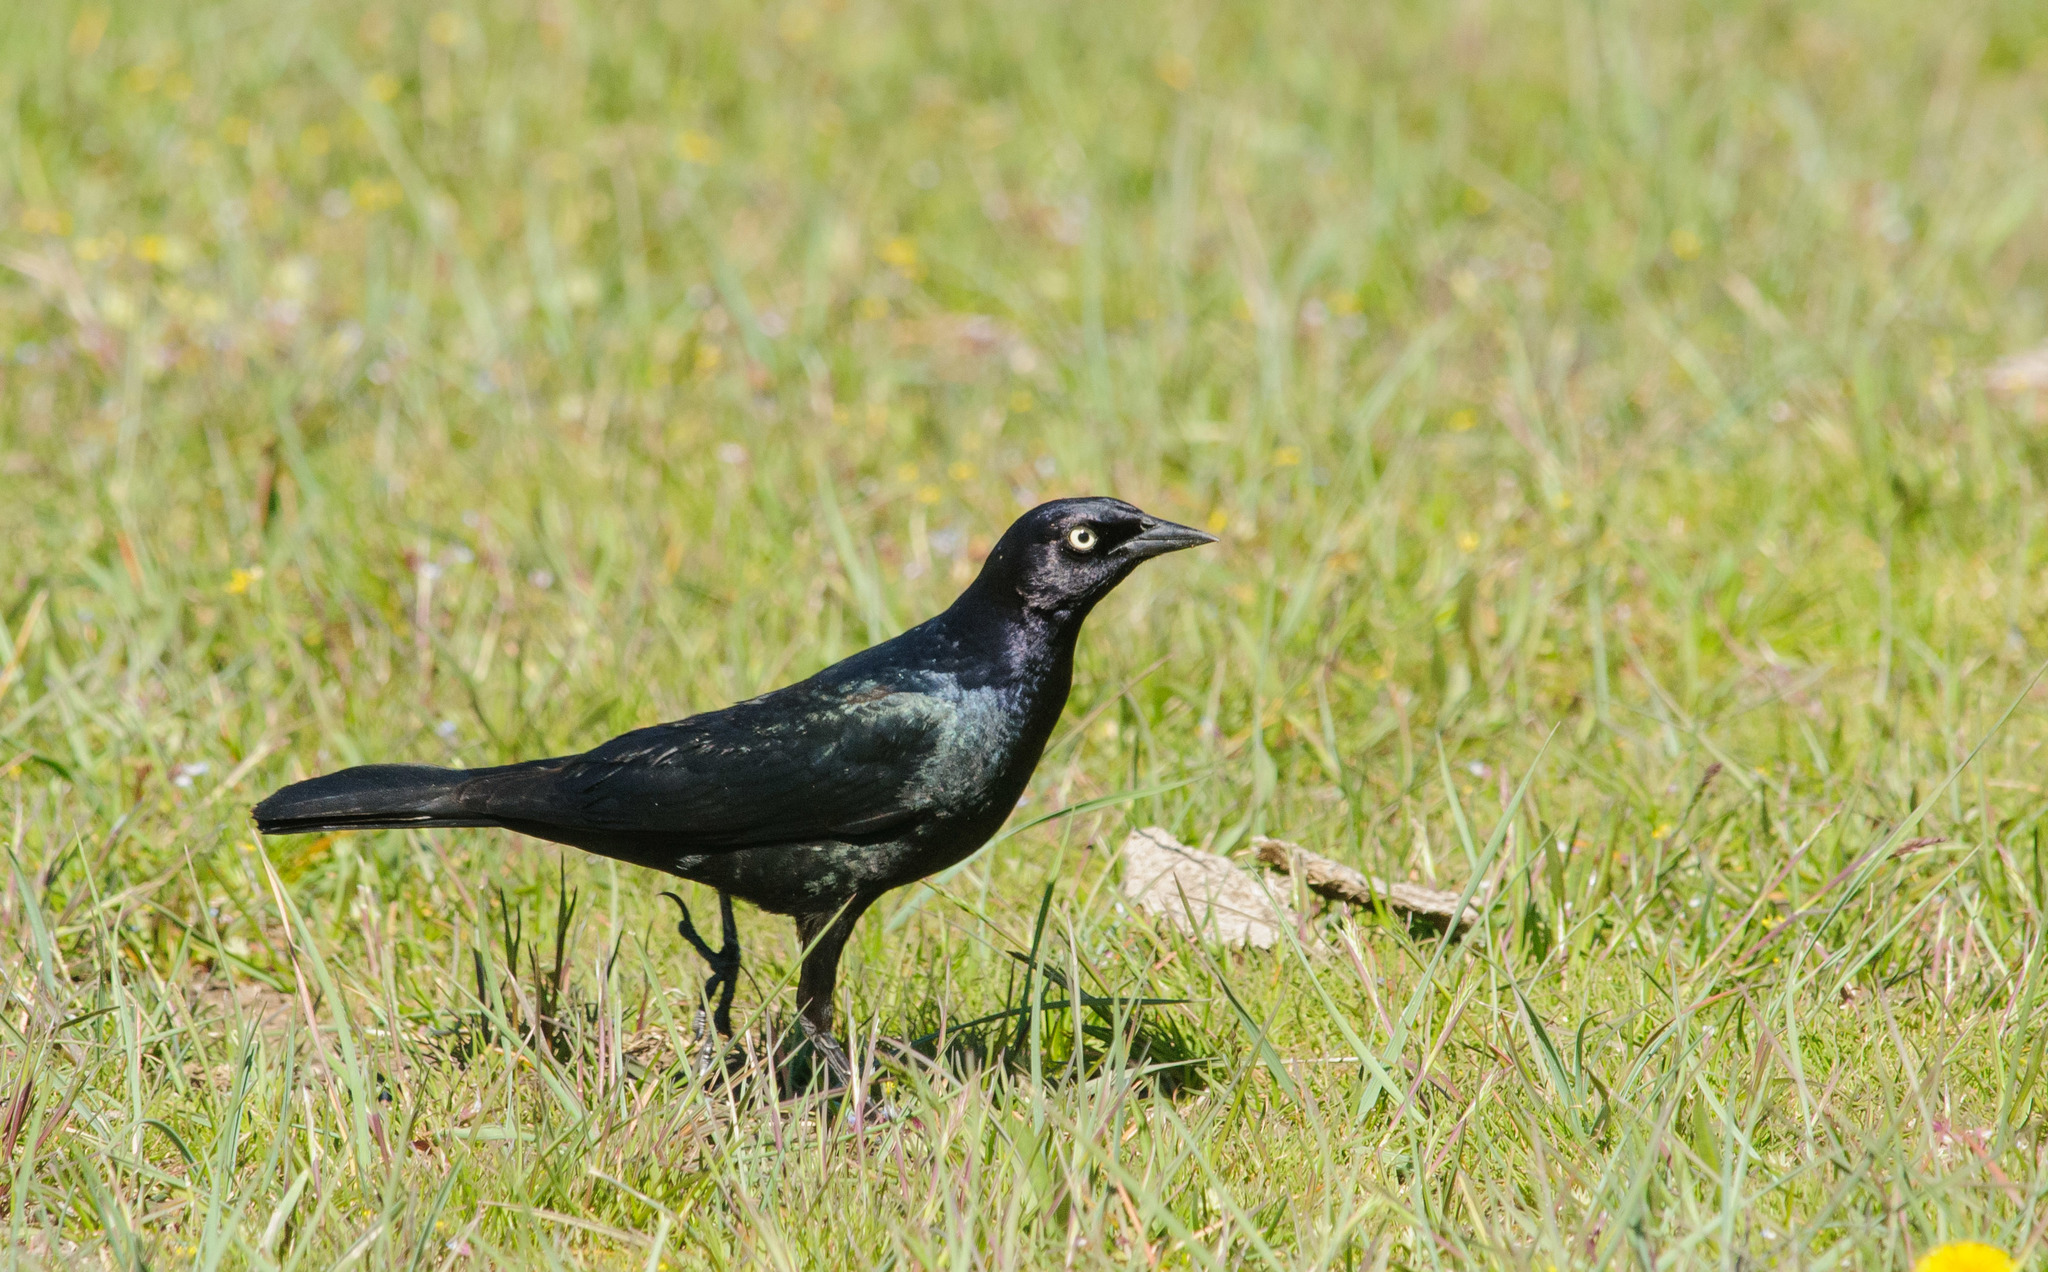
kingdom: Animalia
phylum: Chordata
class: Aves
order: Passeriformes
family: Icteridae
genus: Euphagus
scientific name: Euphagus cyanocephalus
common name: Brewer's blackbird
